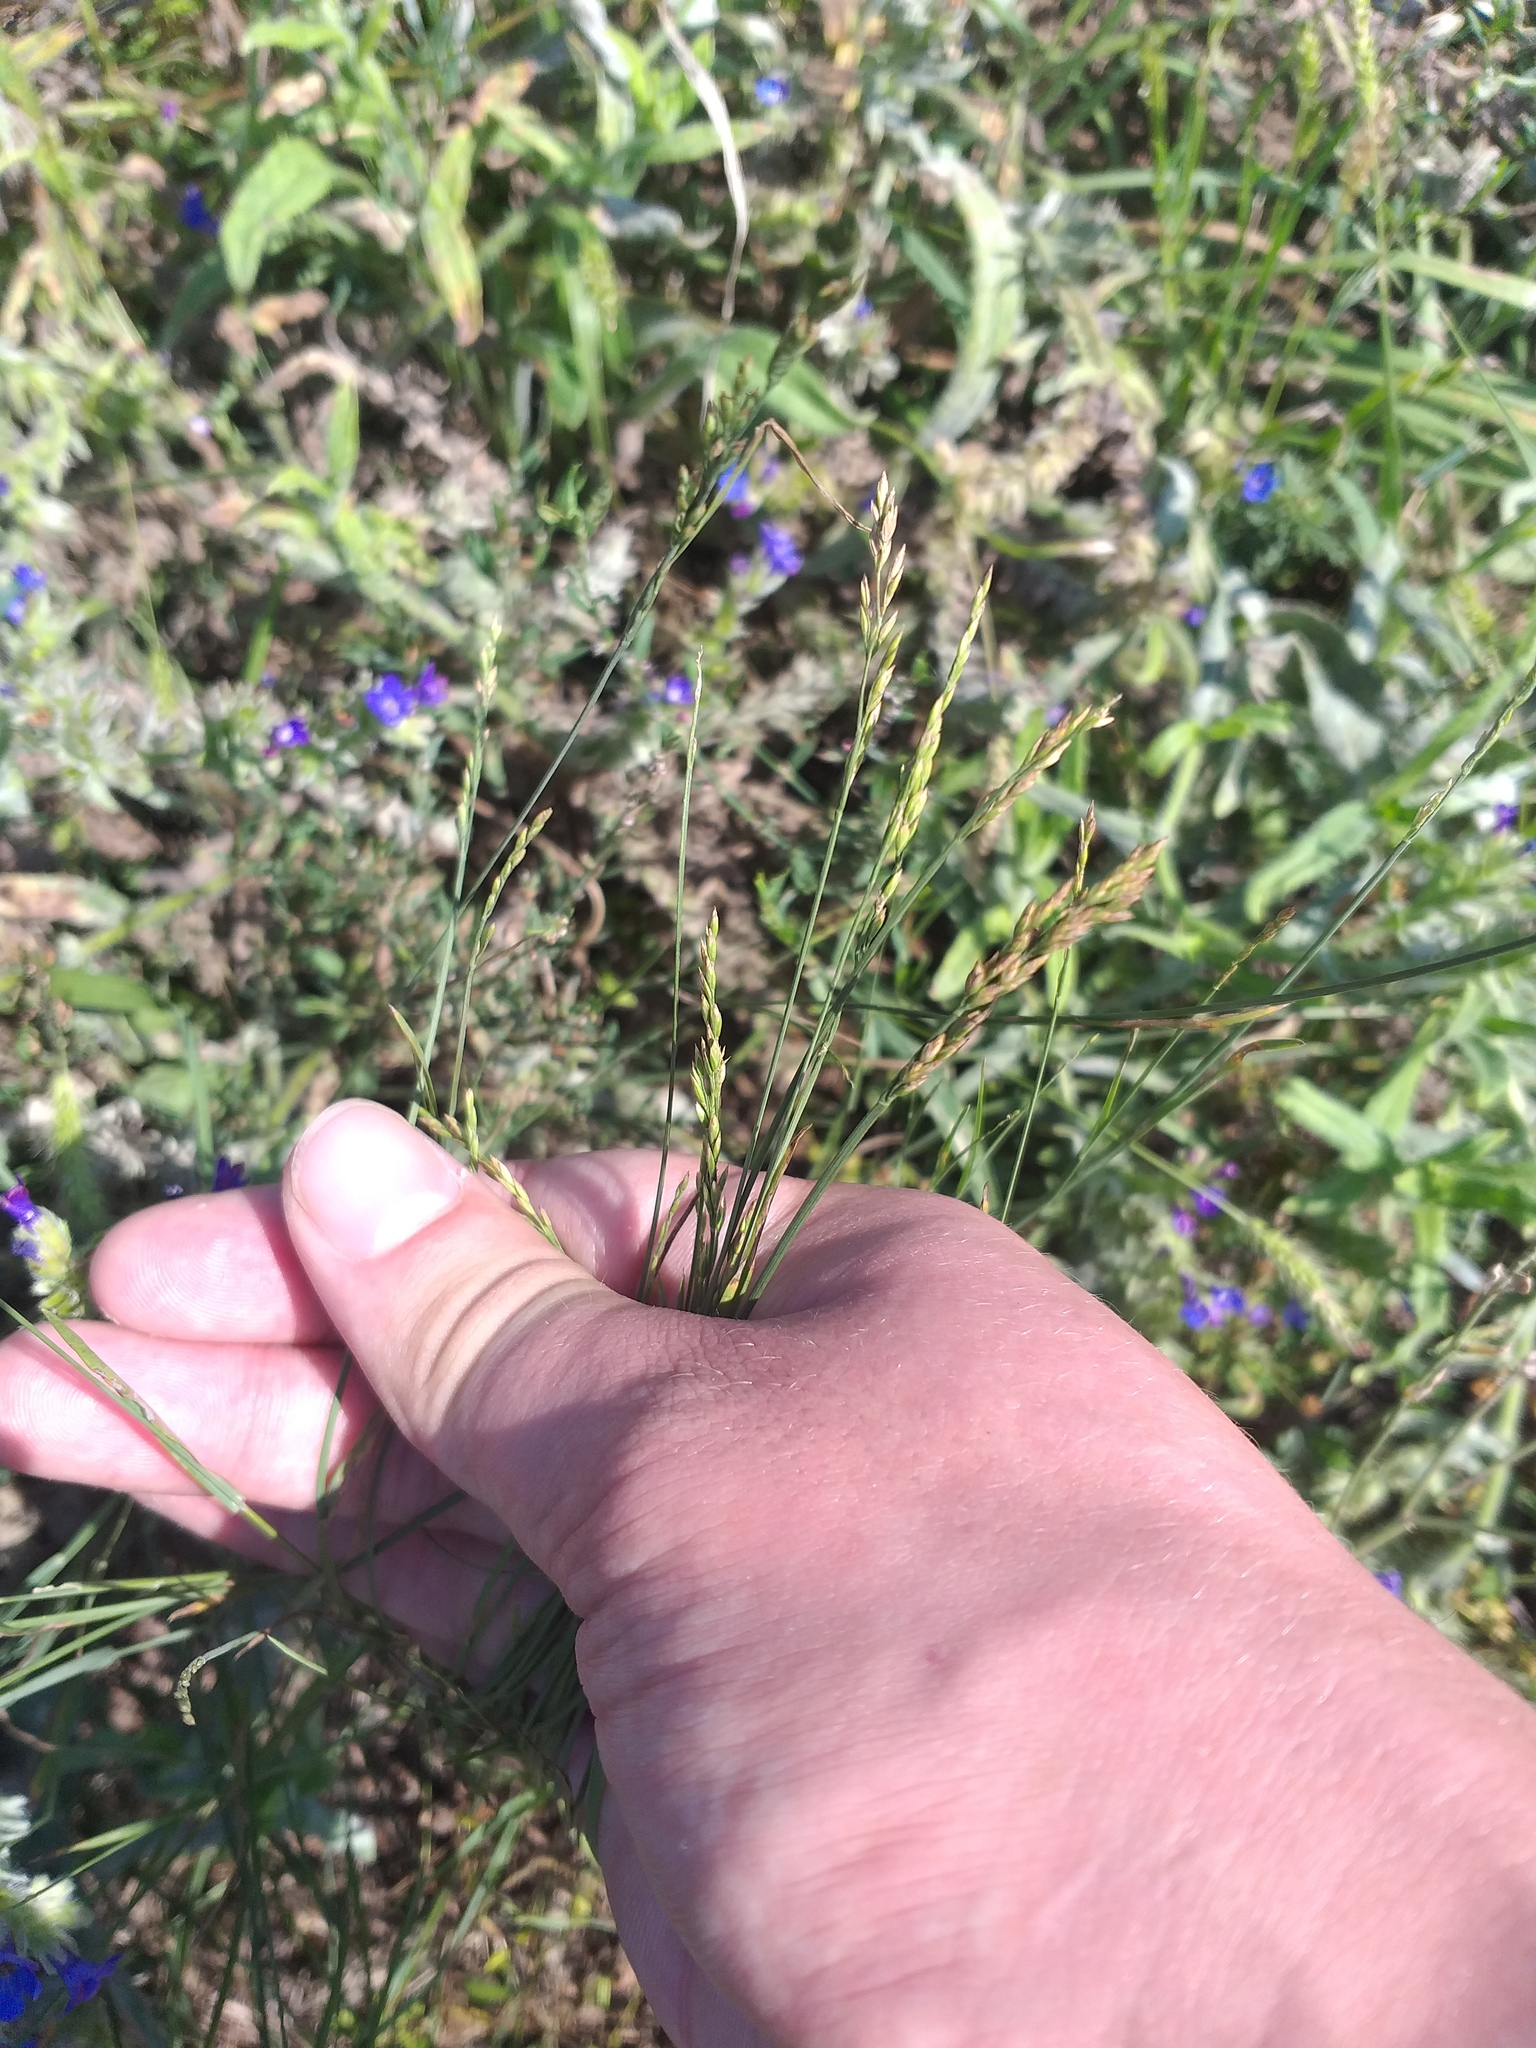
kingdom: Plantae
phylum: Tracheophyta
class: Liliopsida
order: Poales
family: Poaceae
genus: Poa
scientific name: Poa compressa
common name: Canada bluegrass
